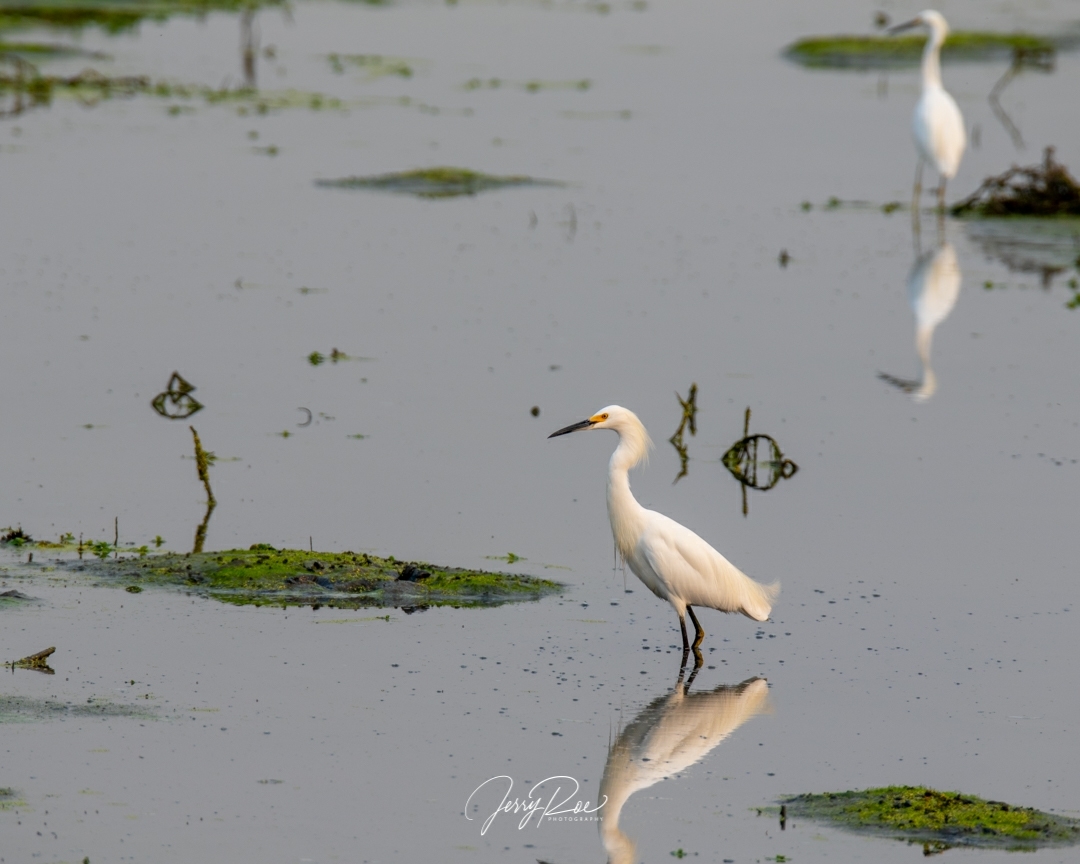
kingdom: Animalia
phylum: Chordata
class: Aves
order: Pelecaniformes
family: Ardeidae
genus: Egretta
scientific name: Egretta thula
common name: Snowy egret
